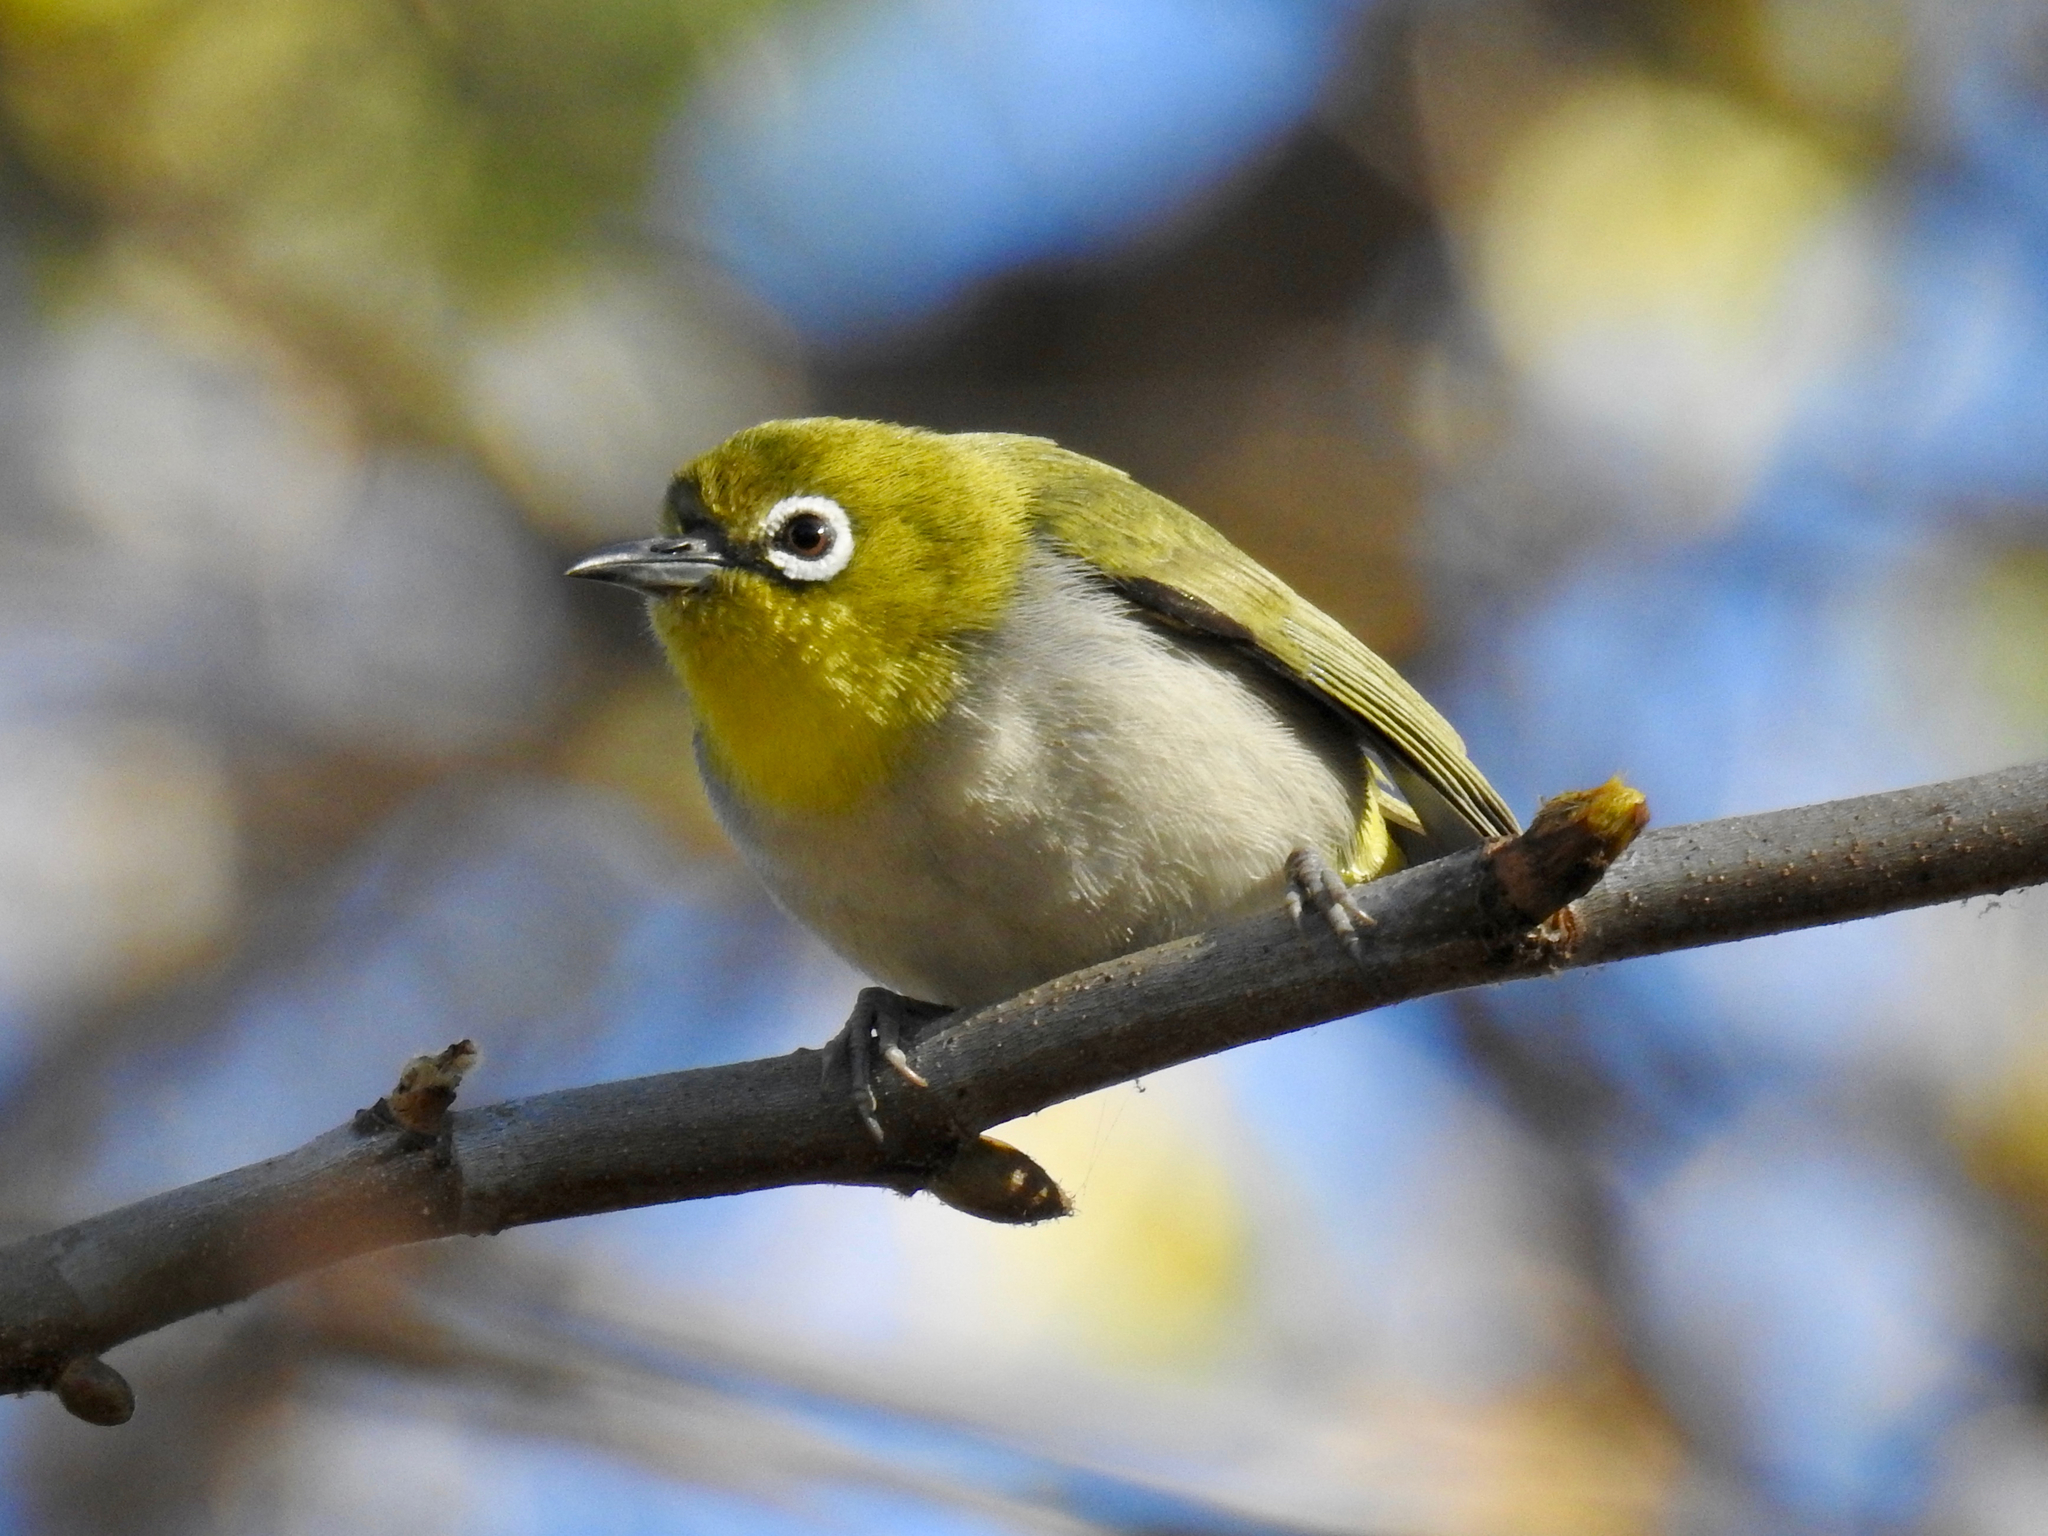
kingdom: Animalia
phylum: Chordata
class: Aves
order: Passeriformes
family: Zosteropidae
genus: Zosterops
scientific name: Zosterops simplex
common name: Swinhoe's white-eye
